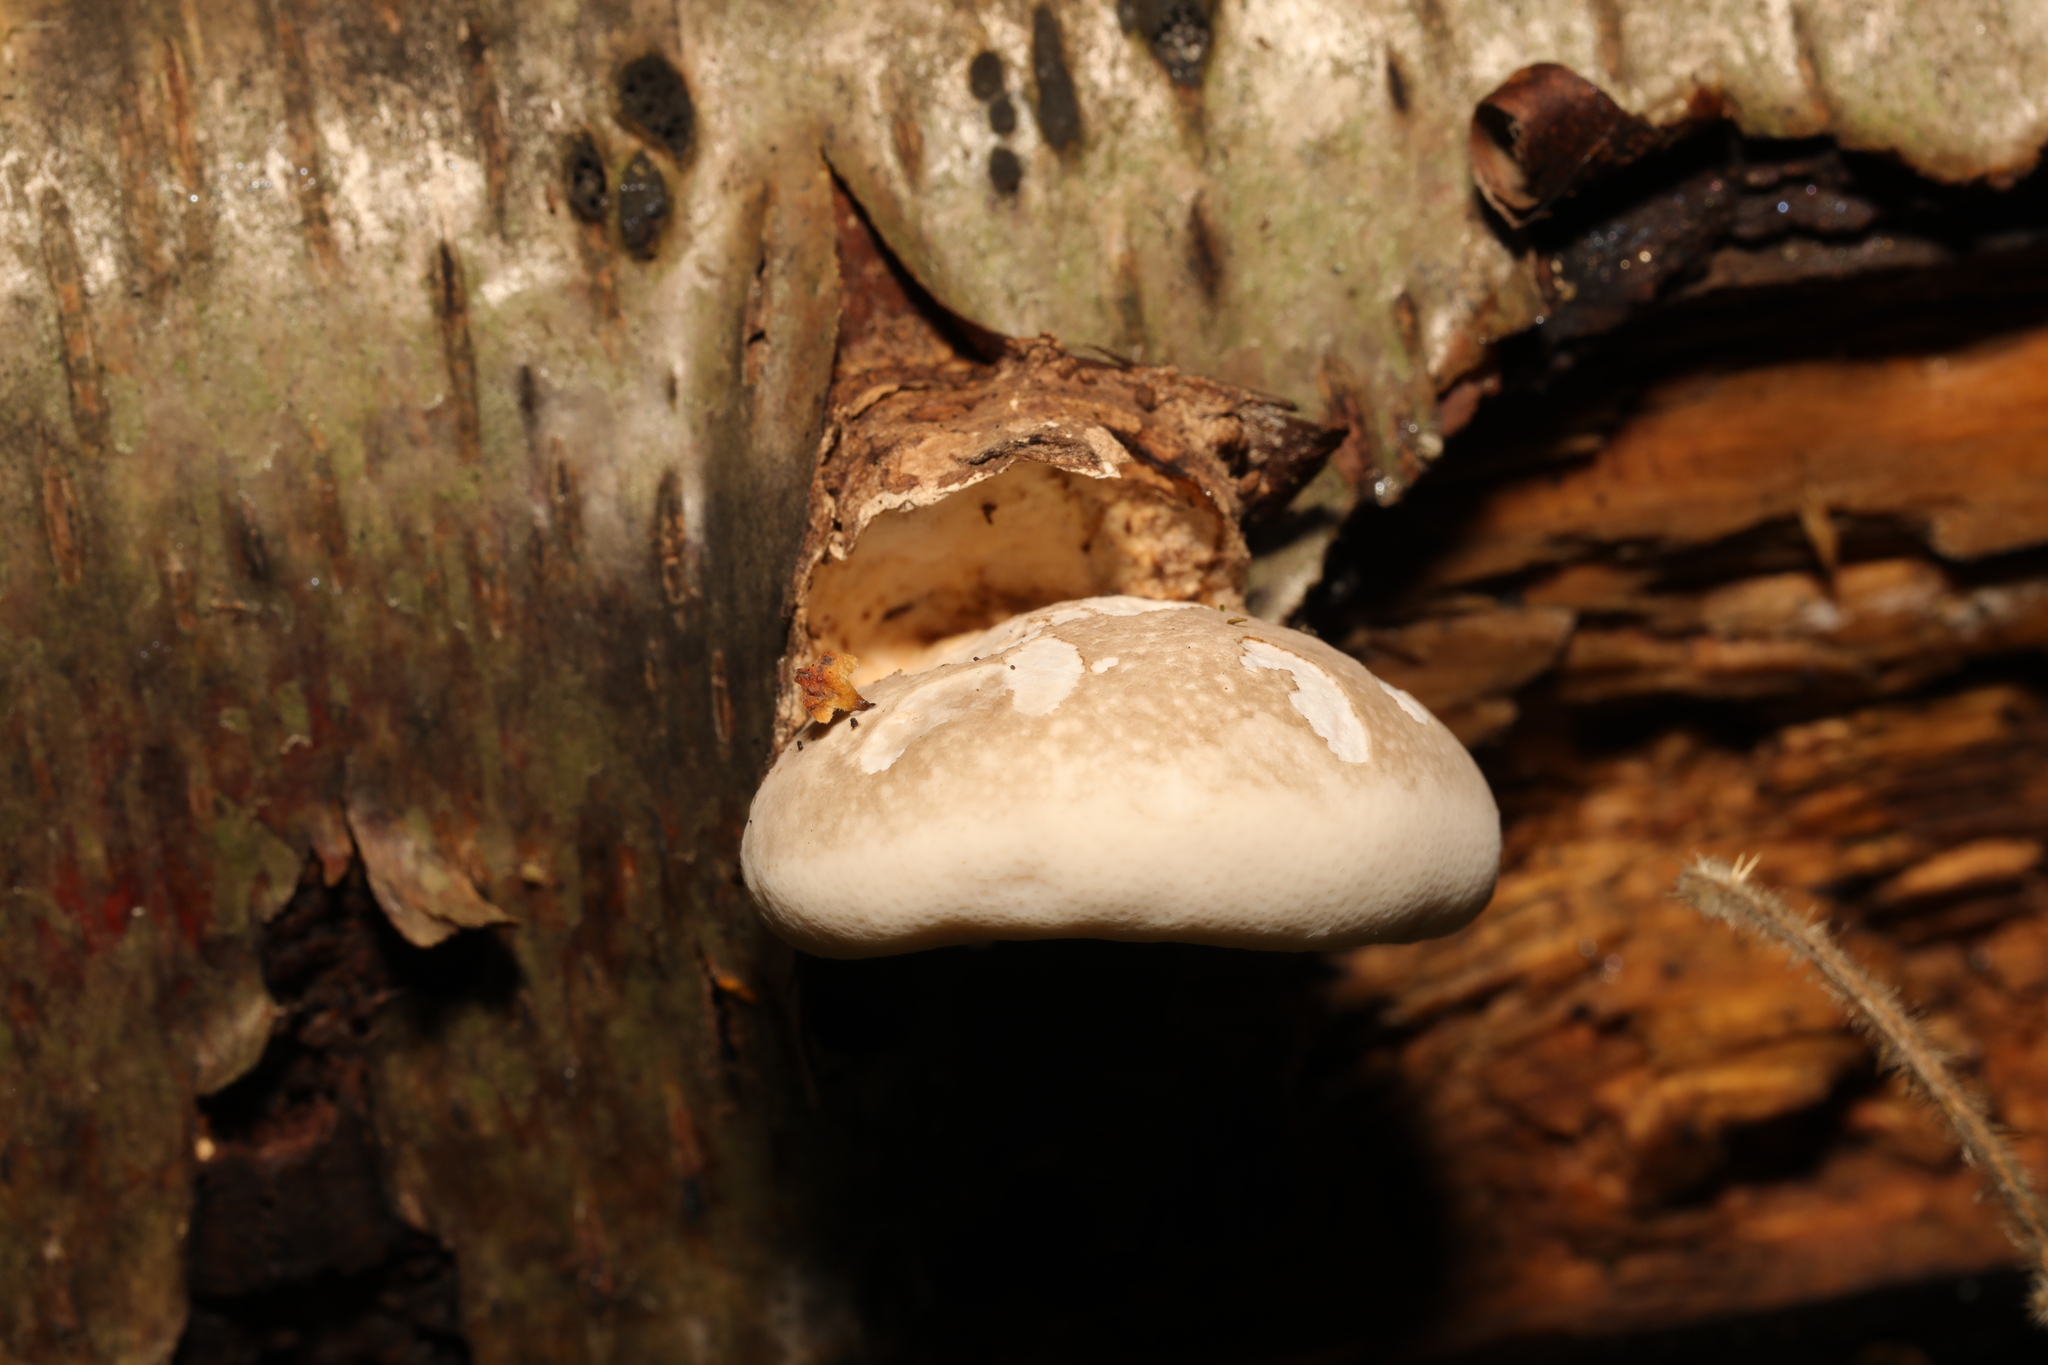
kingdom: Fungi
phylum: Basidiomycota
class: Agaricomycetes
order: Polyporales
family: Fomitopsidaceae
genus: Fomitopsis
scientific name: Fomitopsis betulina
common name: Birch polypore
